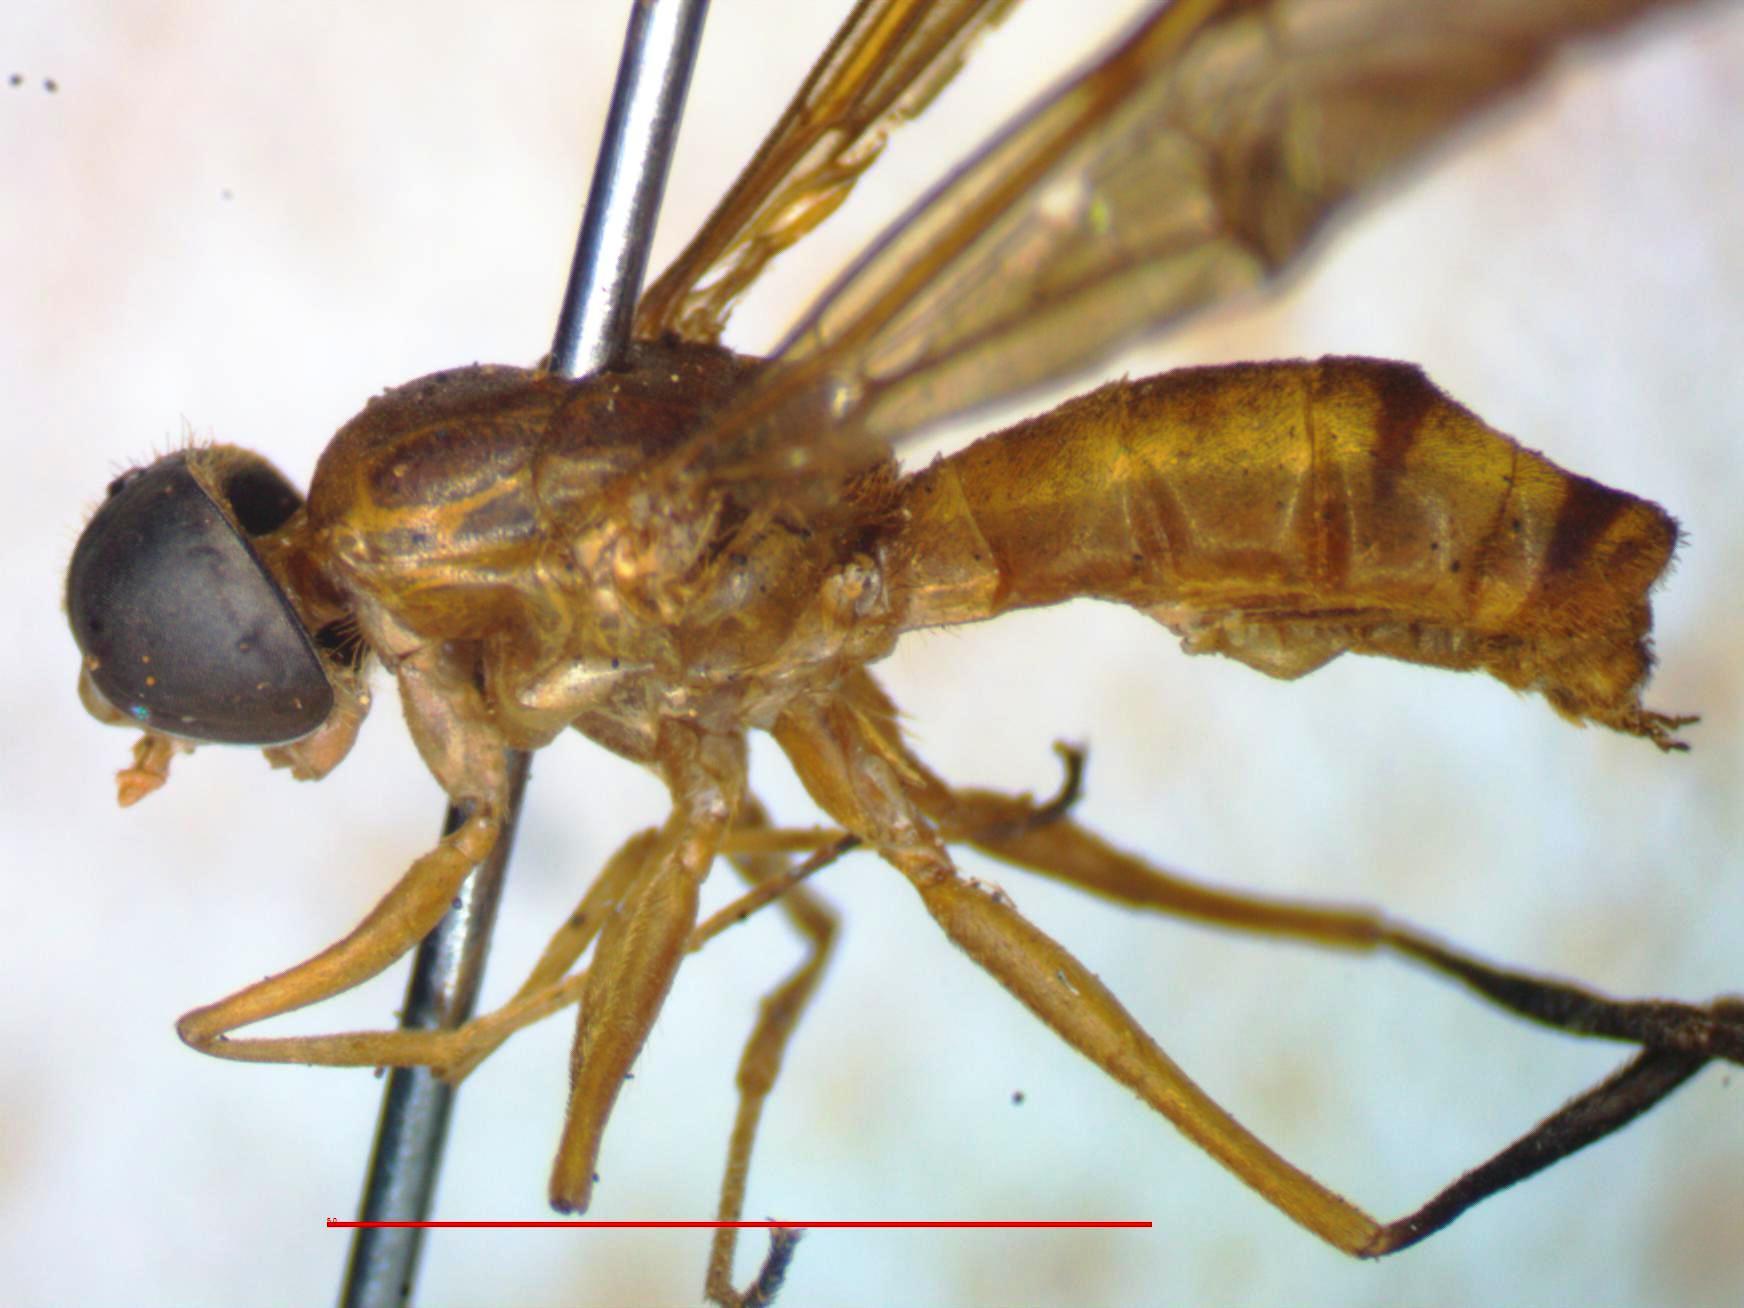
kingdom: Animalia
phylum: Arthropoda
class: Insecta
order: Diptera
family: Stratiomyidae
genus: Ptecticus
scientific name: Ptecticus nigrifrons
